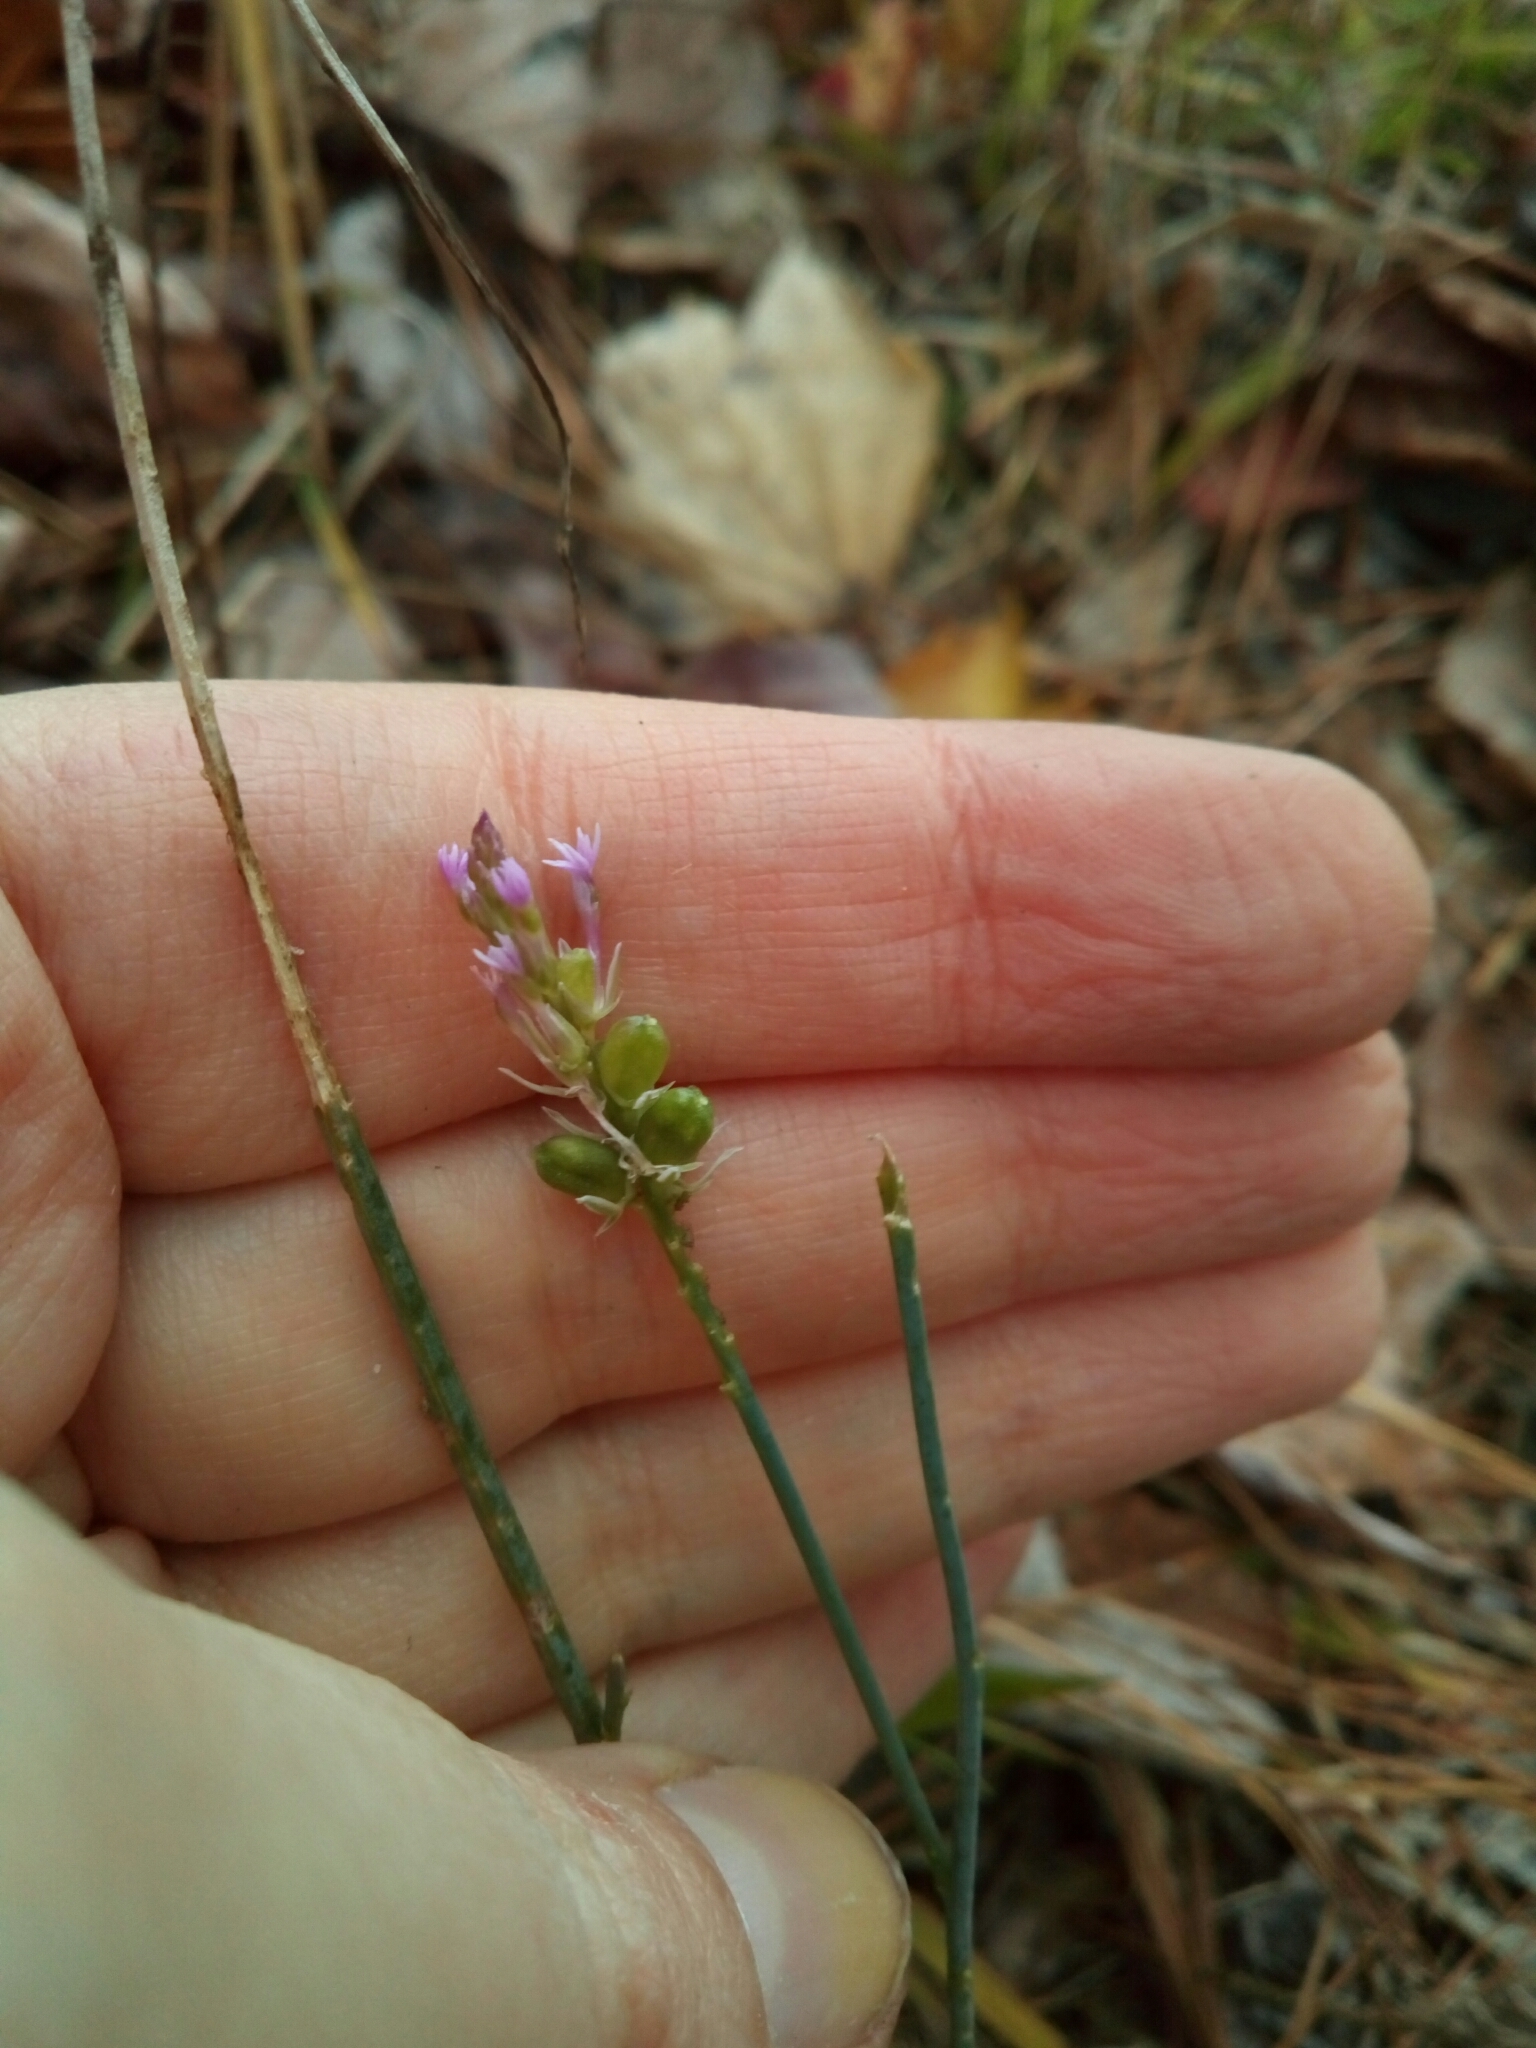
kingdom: Plantae
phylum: Tracheophyta
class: Magnoliopsida
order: Fabales
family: Polygalaceae
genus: Polygala
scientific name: Polygala incarnata
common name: Pink milkwort
